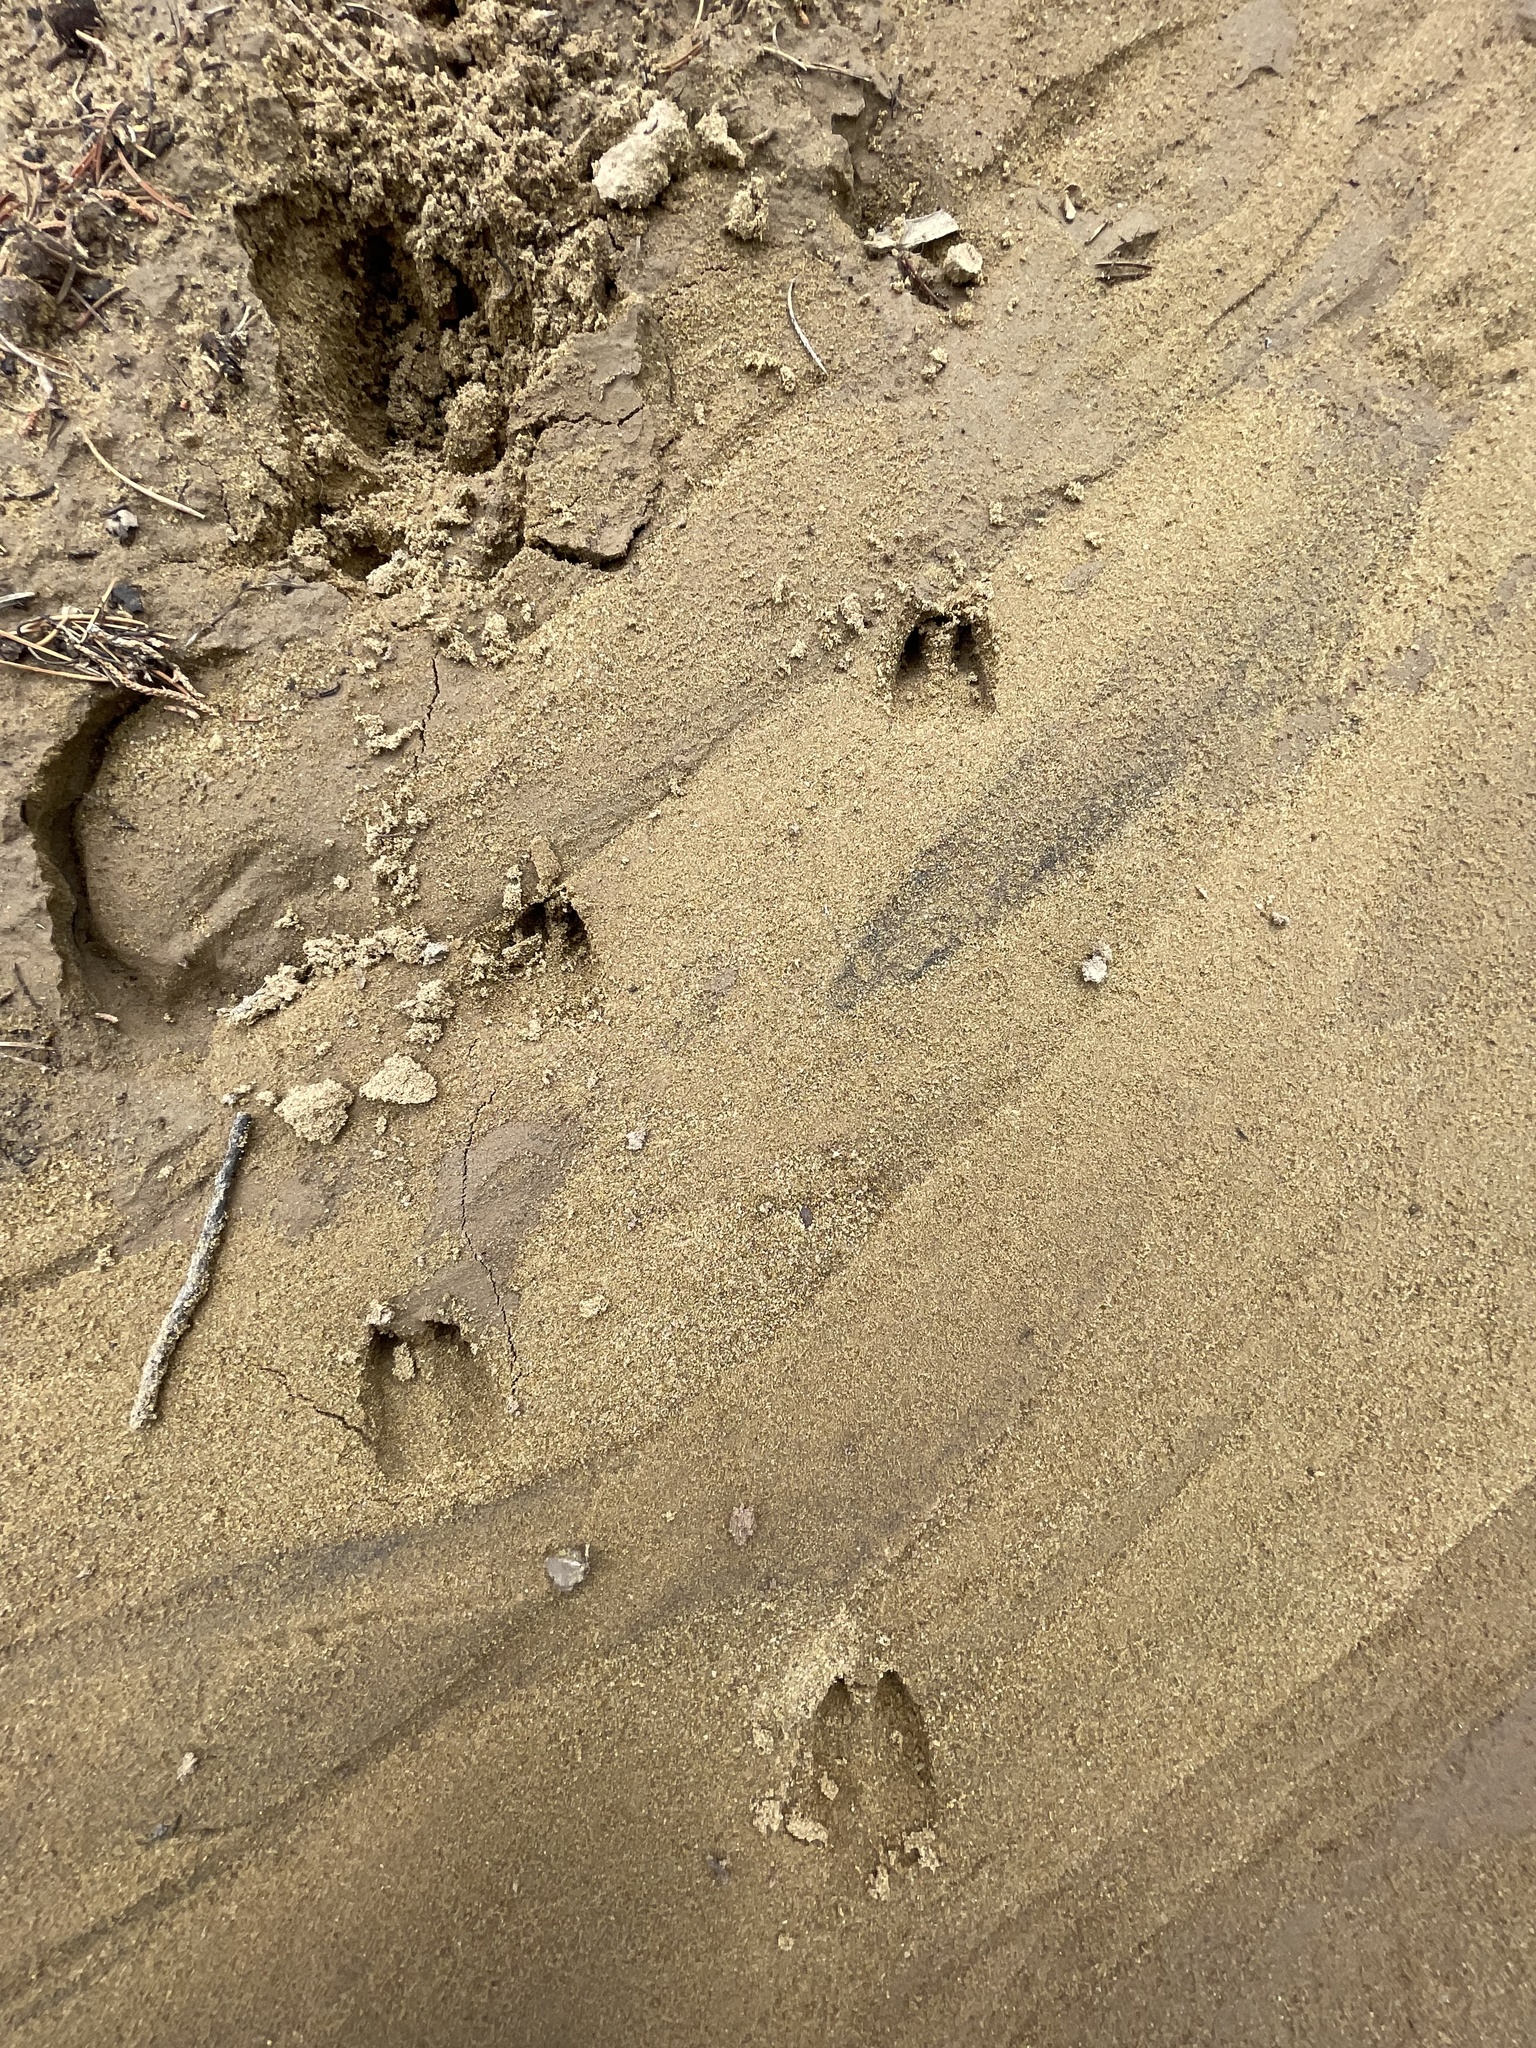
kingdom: Animalia
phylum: Chordata
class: Mammalia
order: Artiodactyla
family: Cervidae
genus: Odocoileus
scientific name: Odocoileus hemionus
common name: Mule deer
